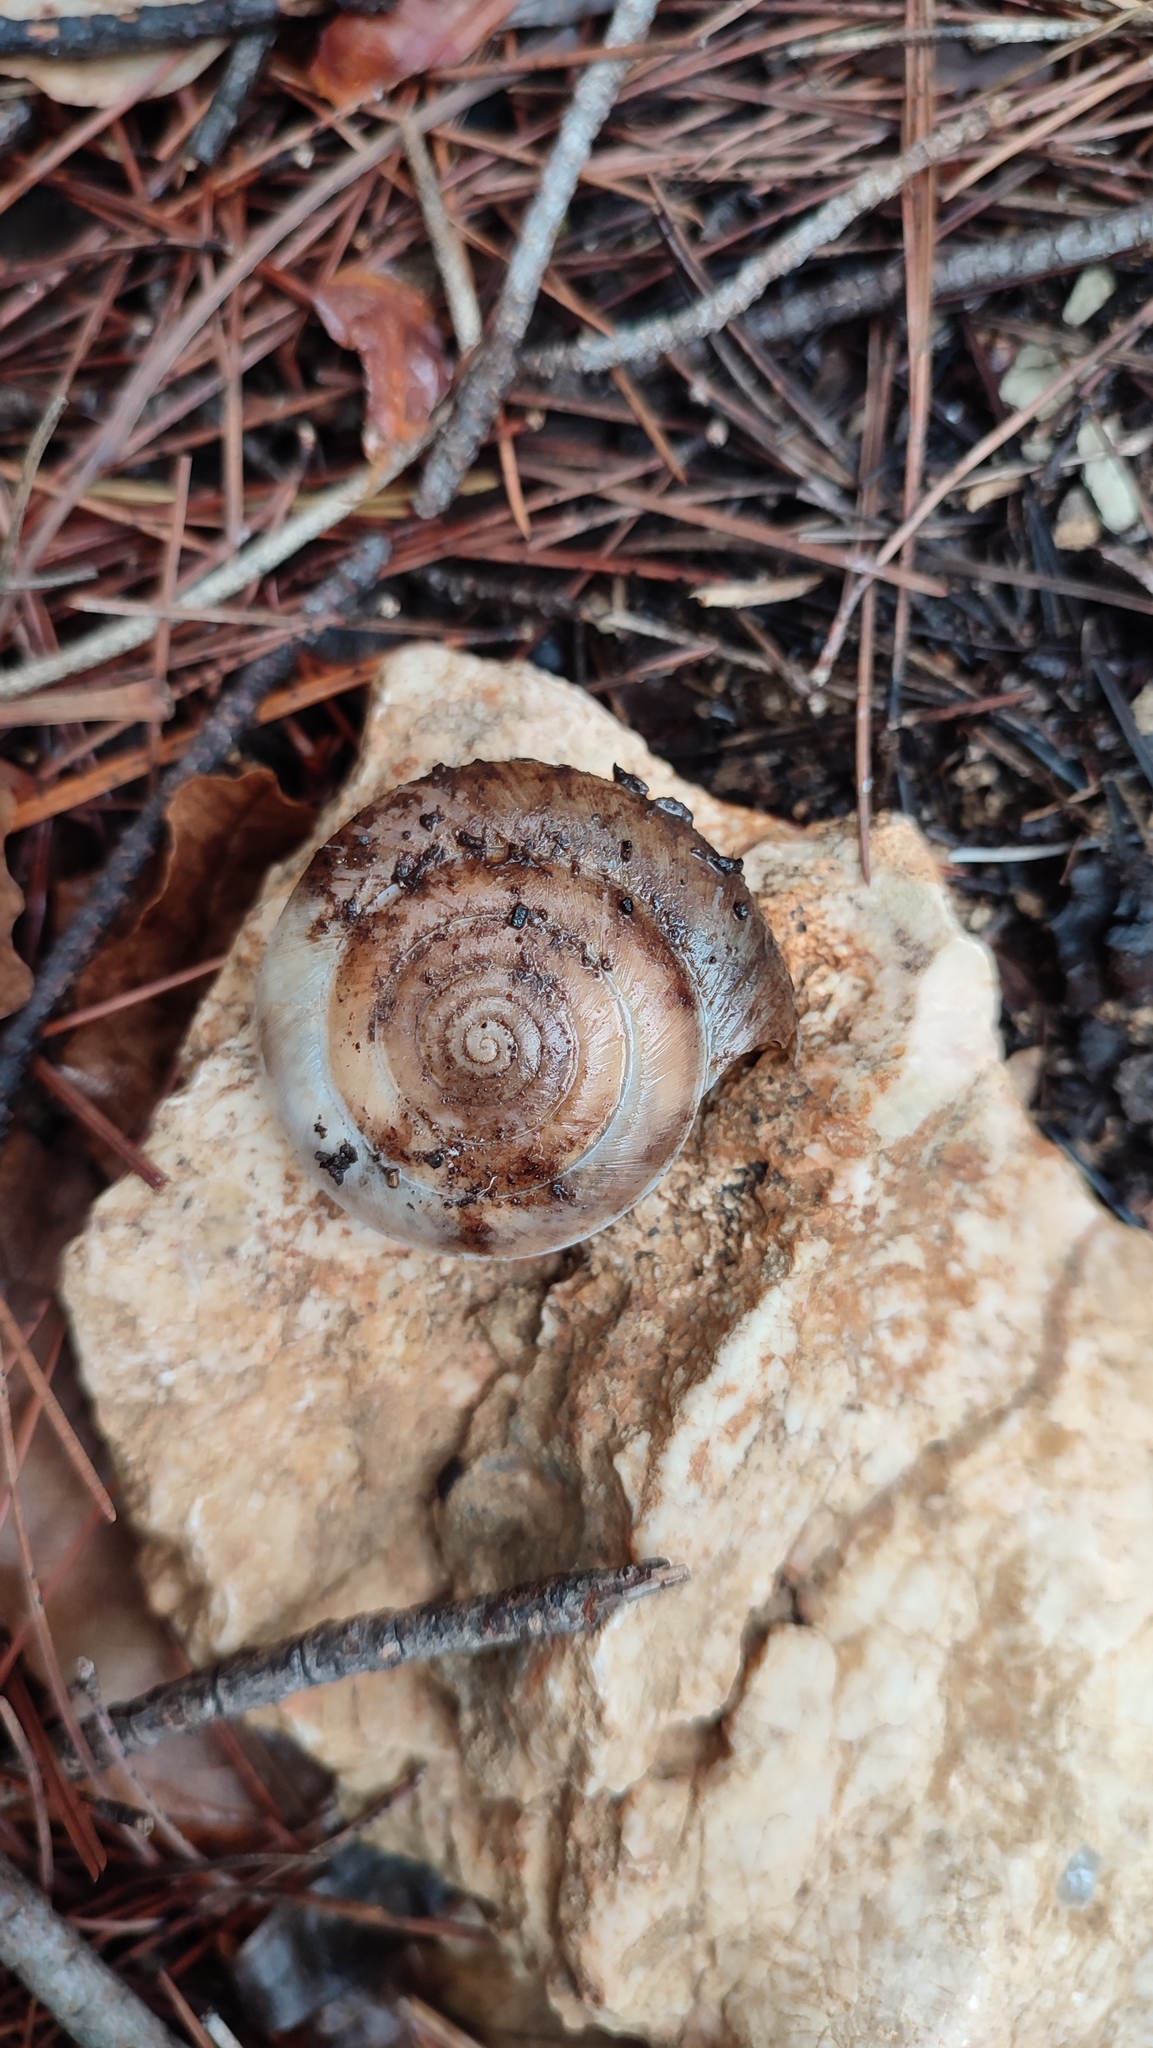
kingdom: Animalia
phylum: Mollusca
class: Gastropoda
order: Stylommatophora
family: Zonitidae
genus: Aegopis
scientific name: Aegopis verticillus
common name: Giant glass snail
